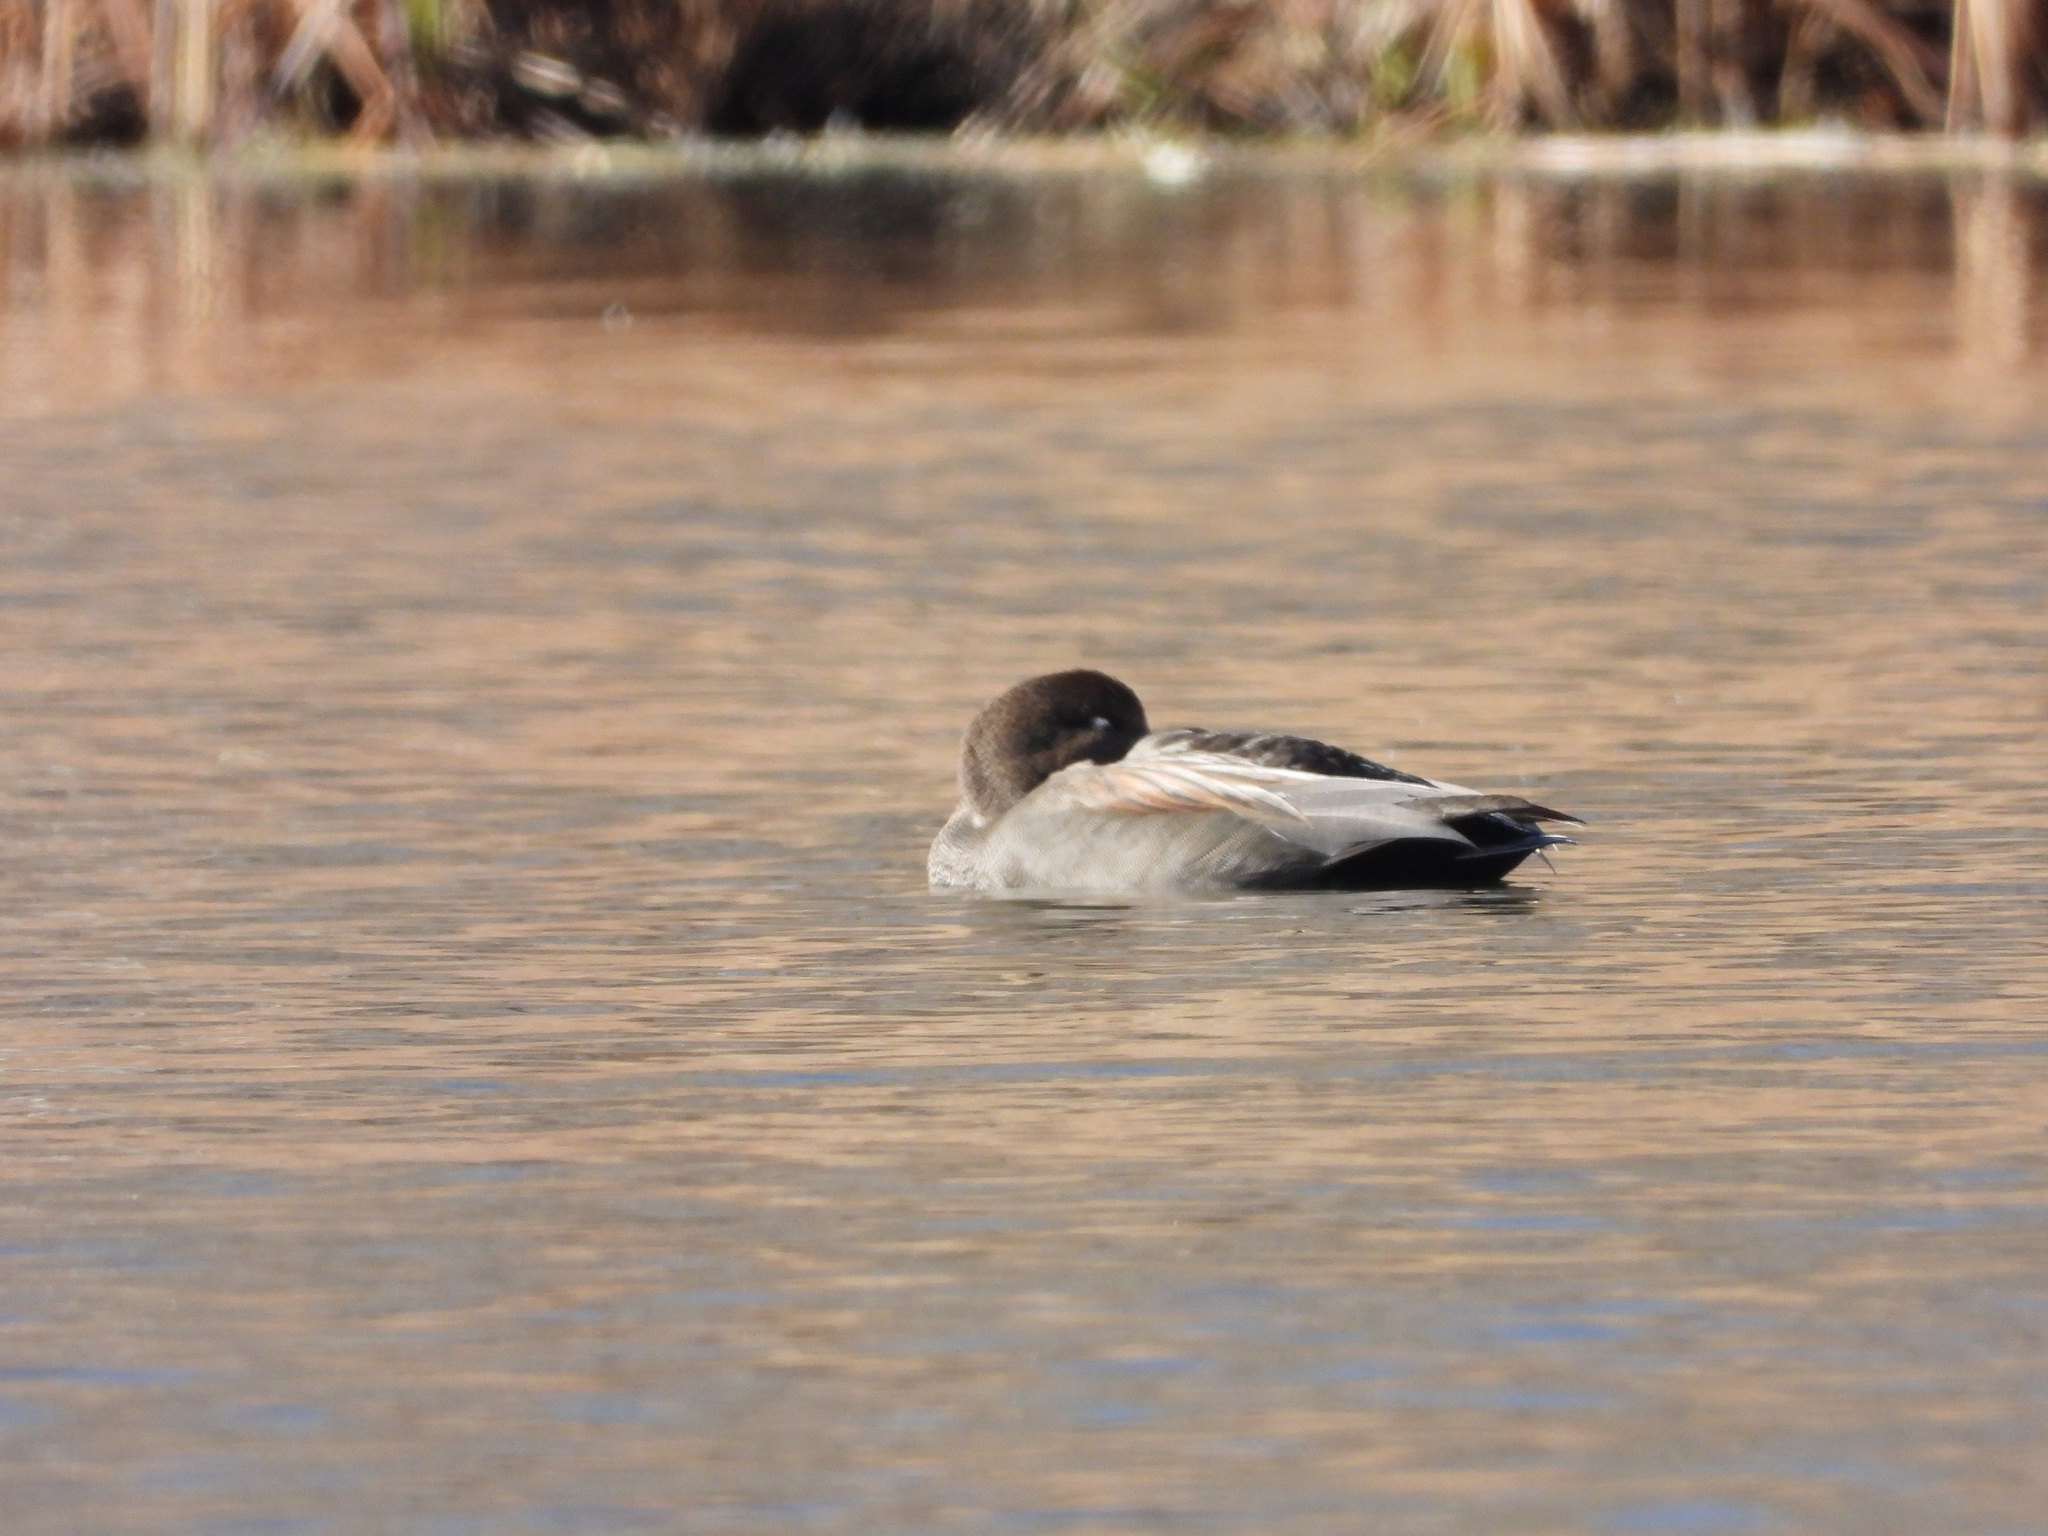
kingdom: Animalia
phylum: Chordata
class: Aves
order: Anseriformes
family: Anatidae
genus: Mareca
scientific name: Mareca strepera
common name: Gadwall
